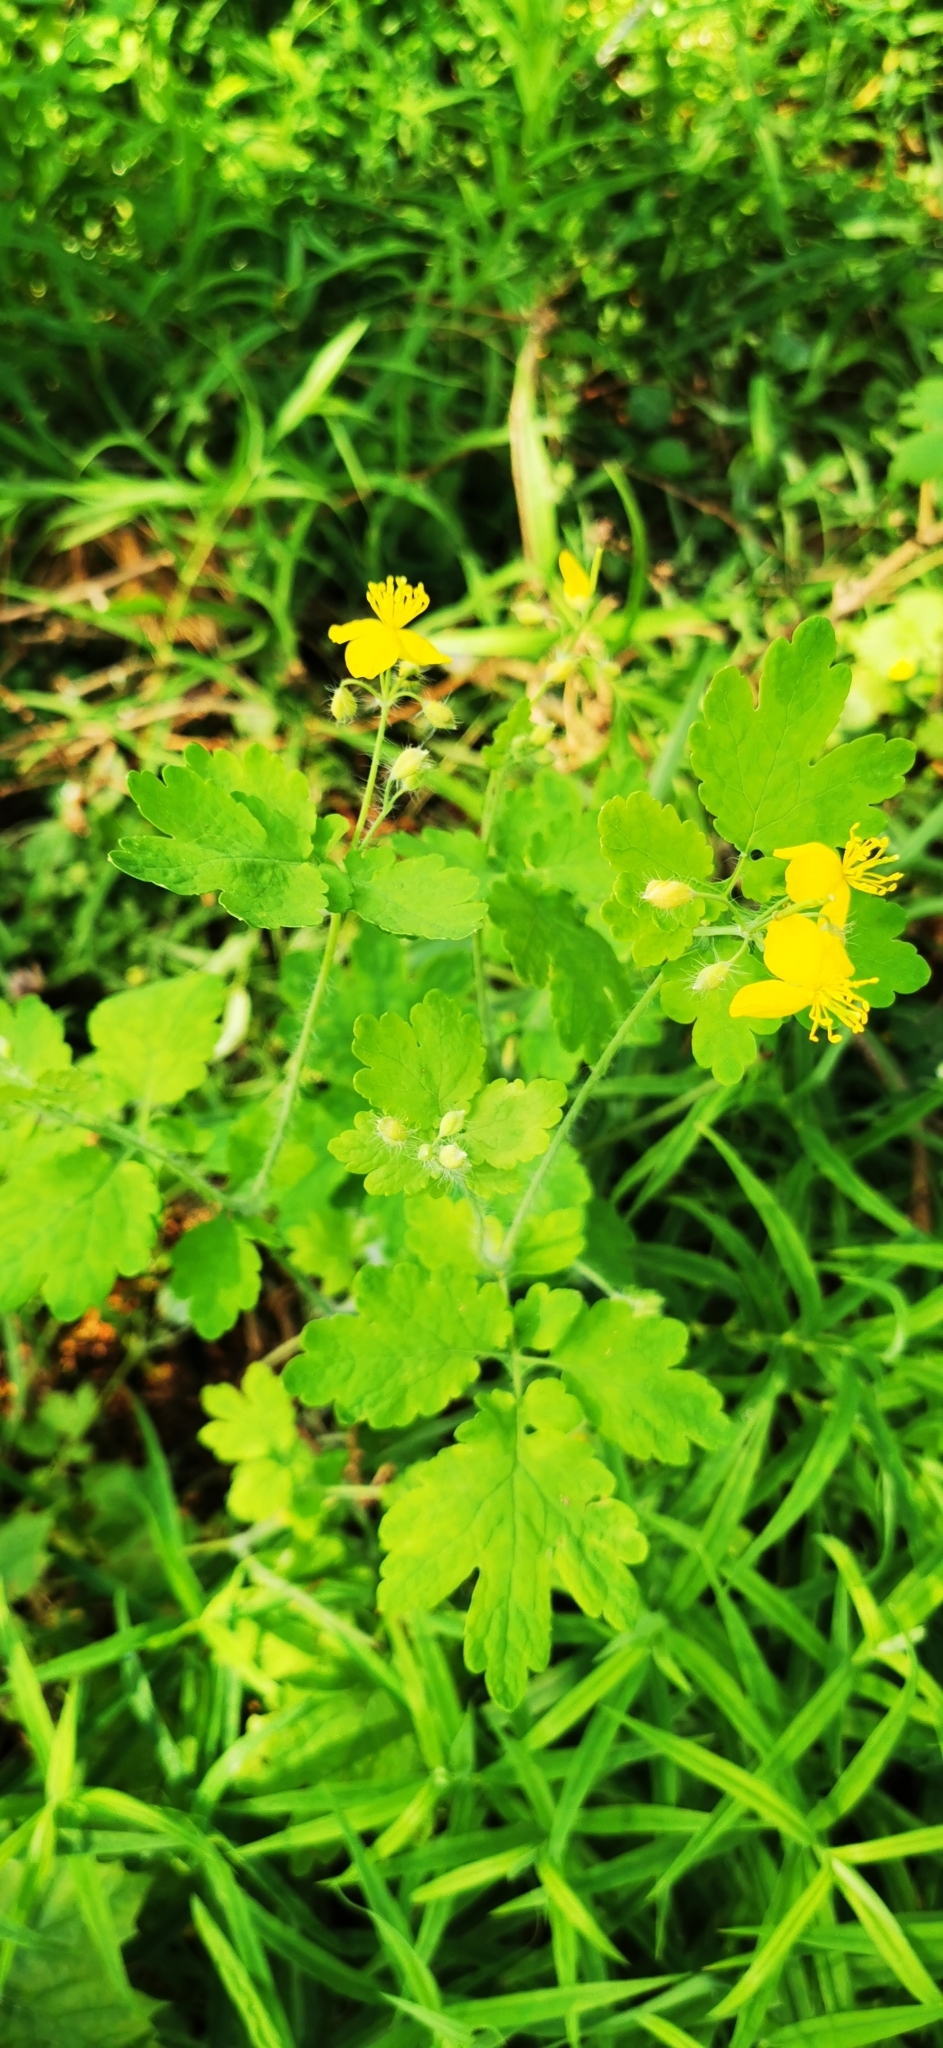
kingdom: Plantae
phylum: Tracheophyta
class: Magnoliopsida
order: Ranunculales
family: Papaveraceae
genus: Chelidonium
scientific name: Chelidonium majus
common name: Greater celandine
